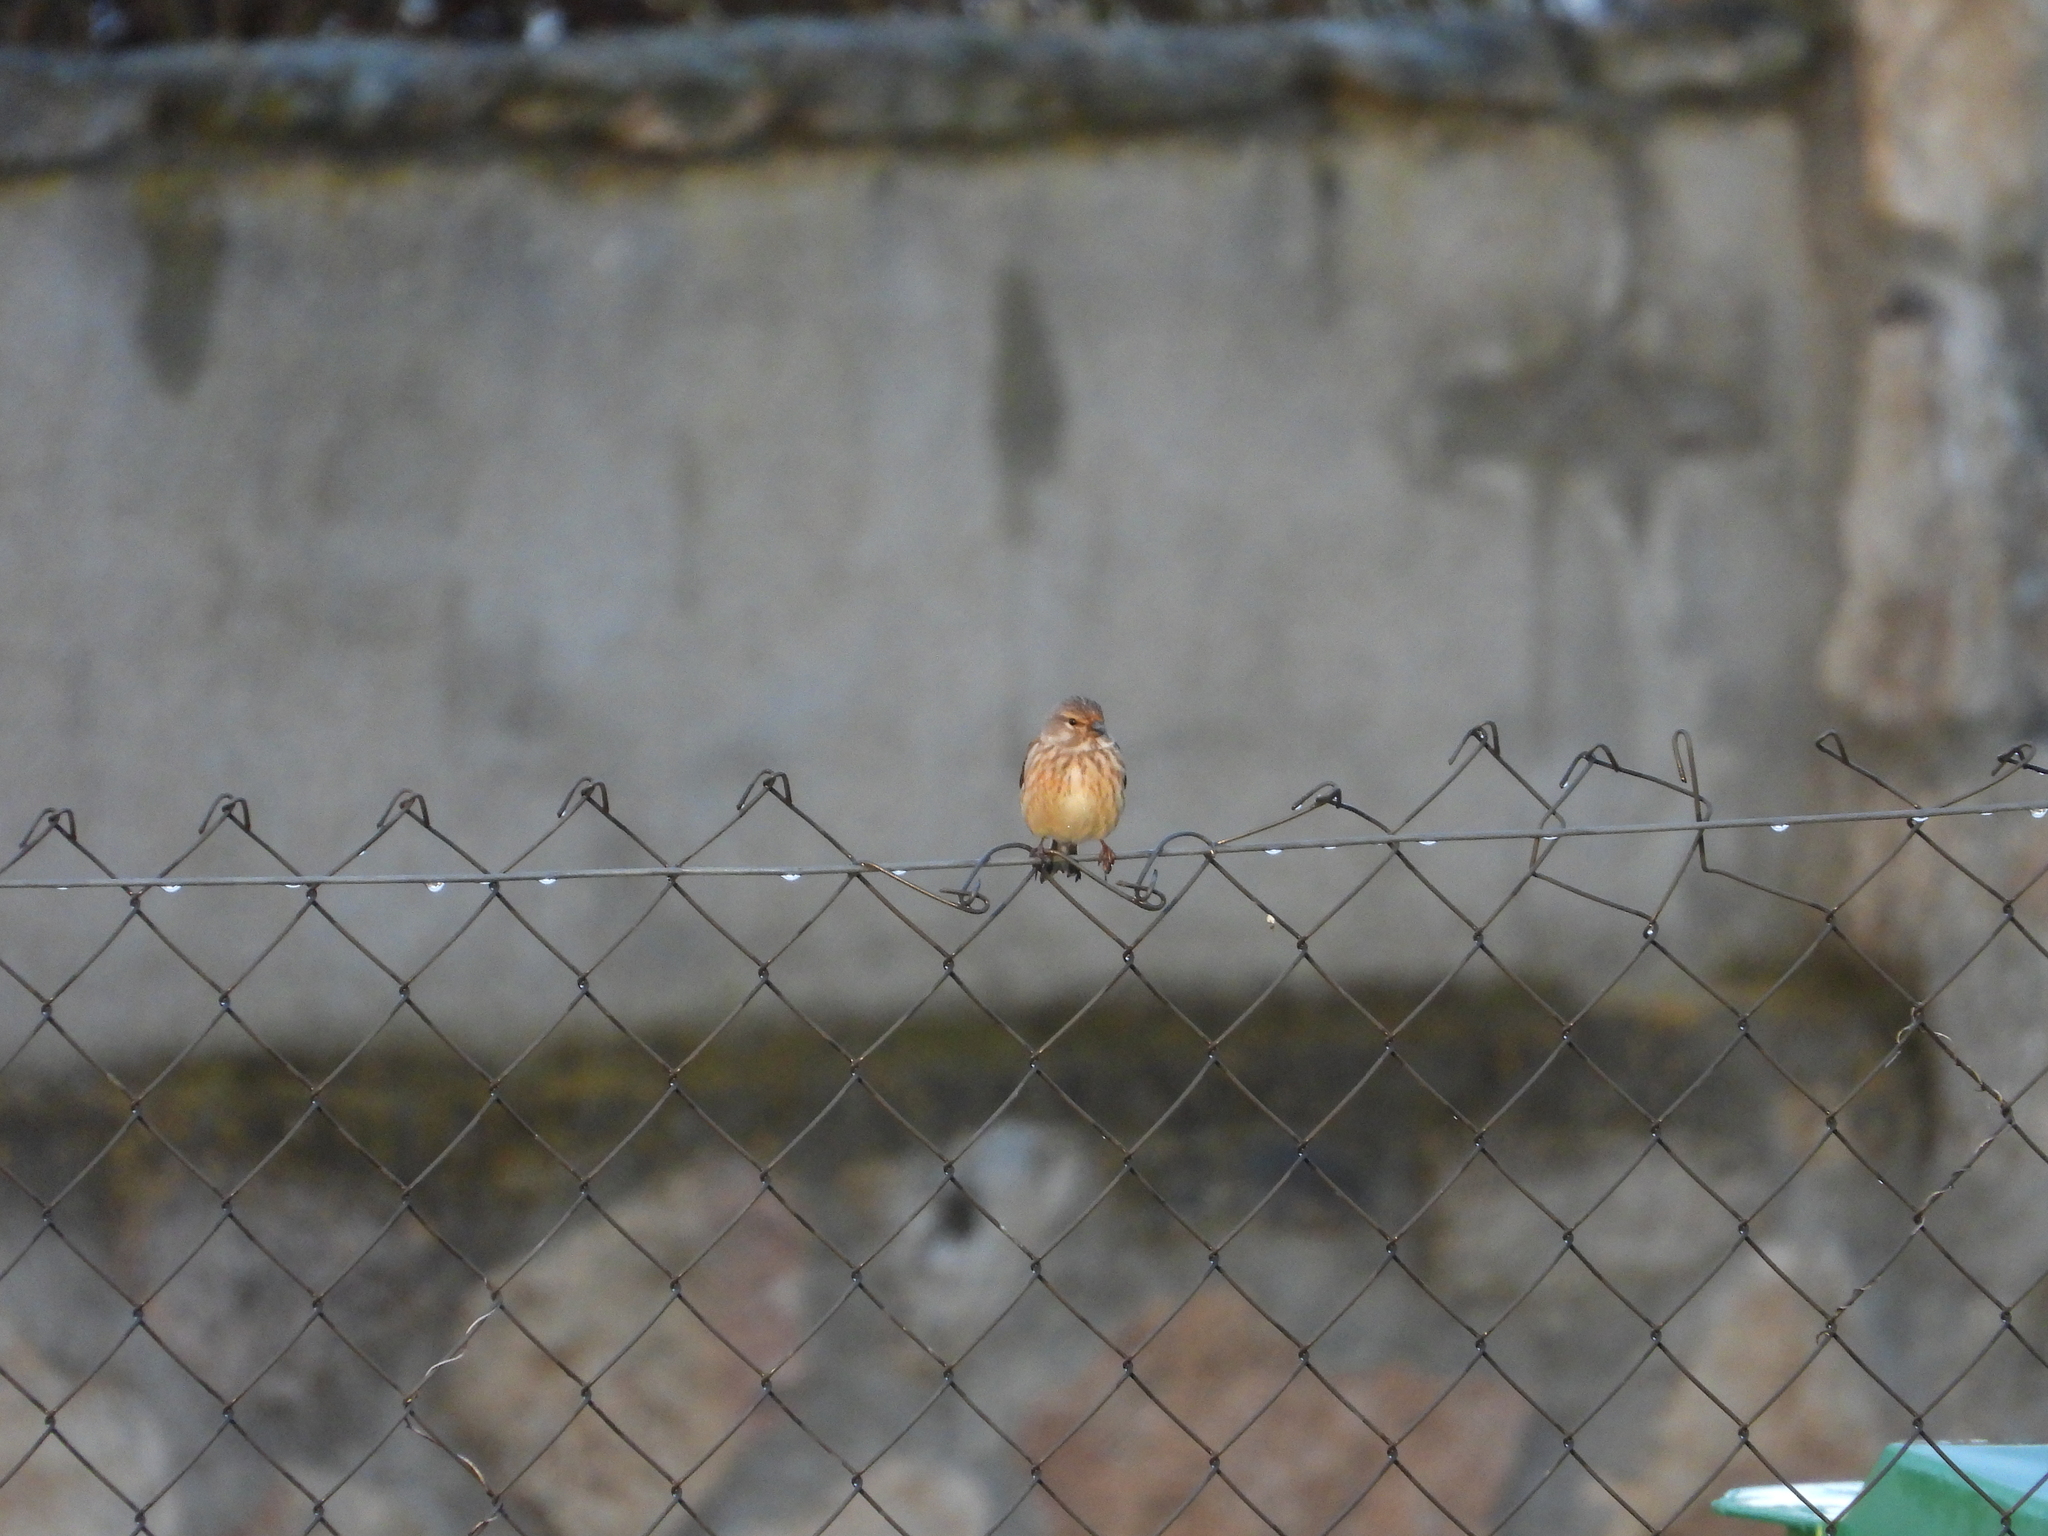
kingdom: Animalia
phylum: Chordata
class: Aves
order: Passeriformes
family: Fringillidae
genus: Linaria
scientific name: Linaria cannabina
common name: Common linnet
